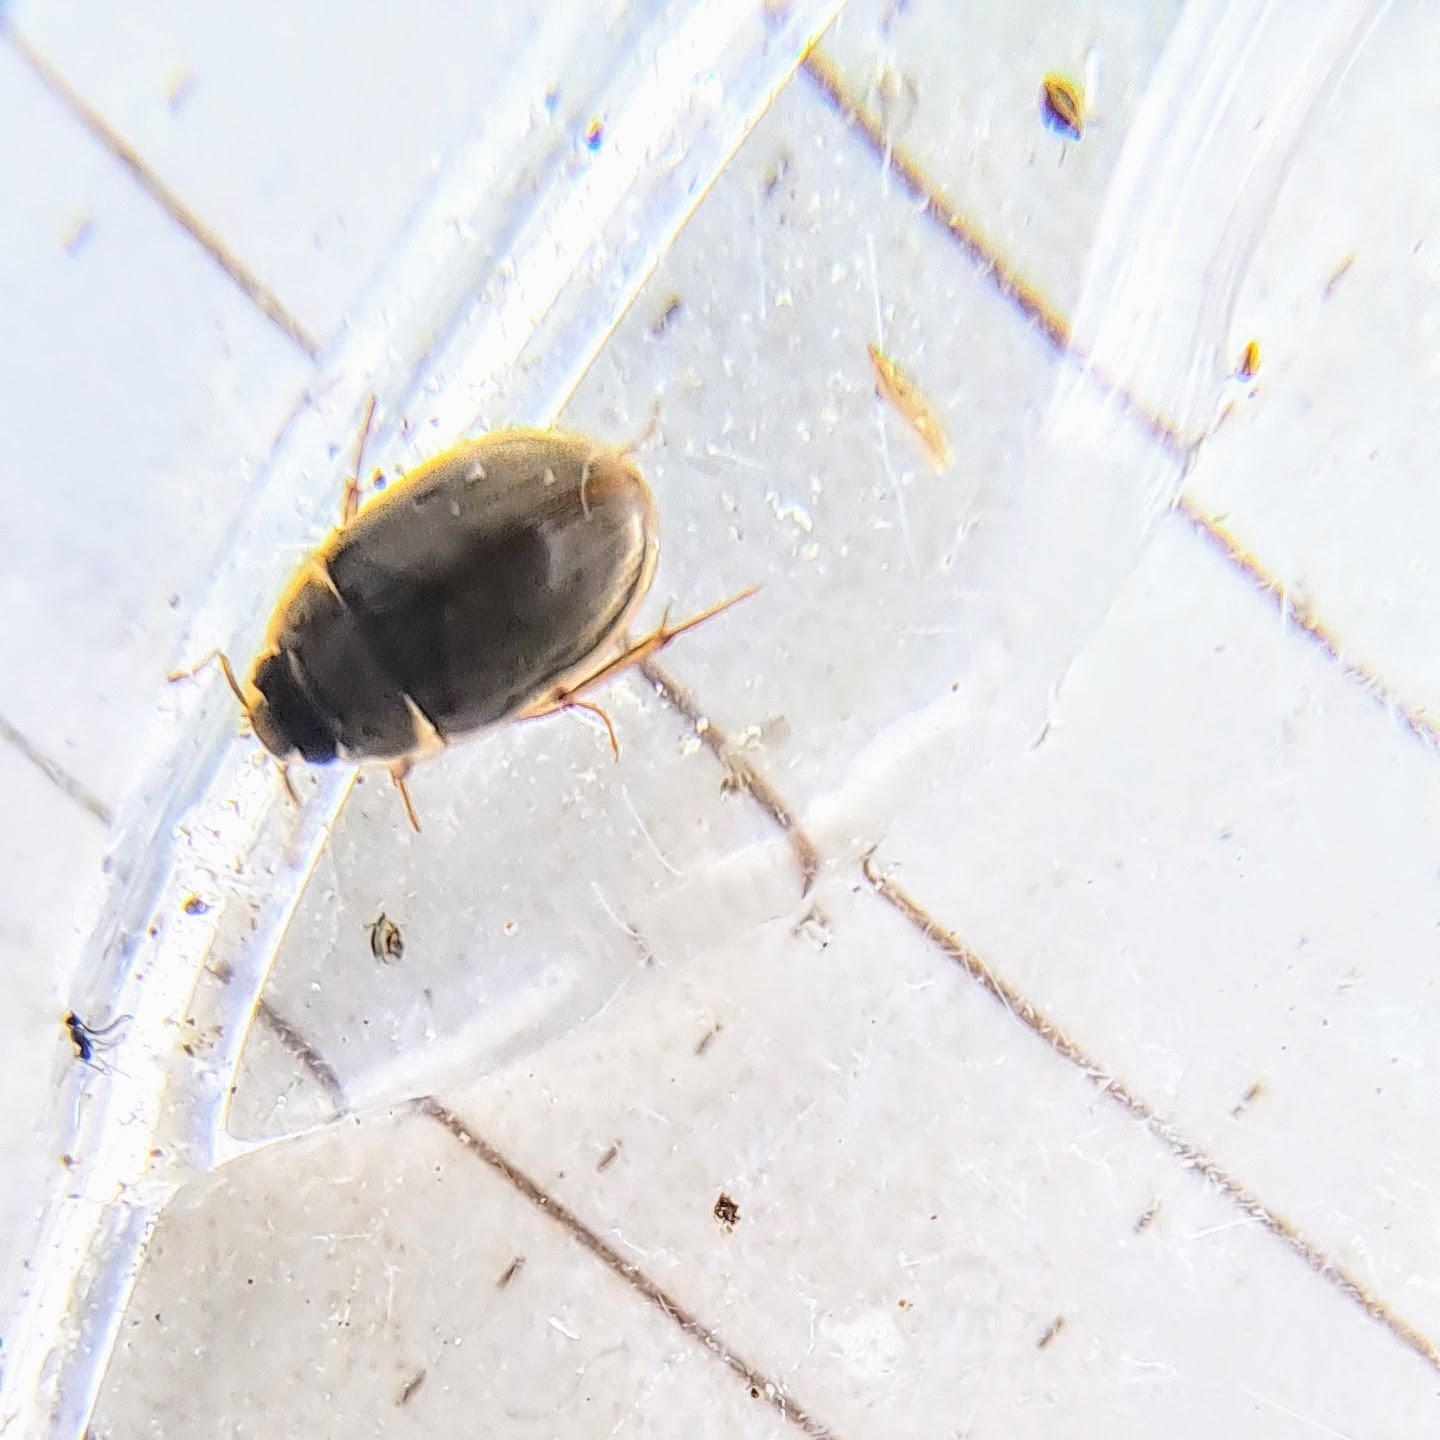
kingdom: Animalia
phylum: Arthropoda
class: Insecta
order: Coleoptera
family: Hydrophilidae
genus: Enochrus
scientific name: Enochrus
